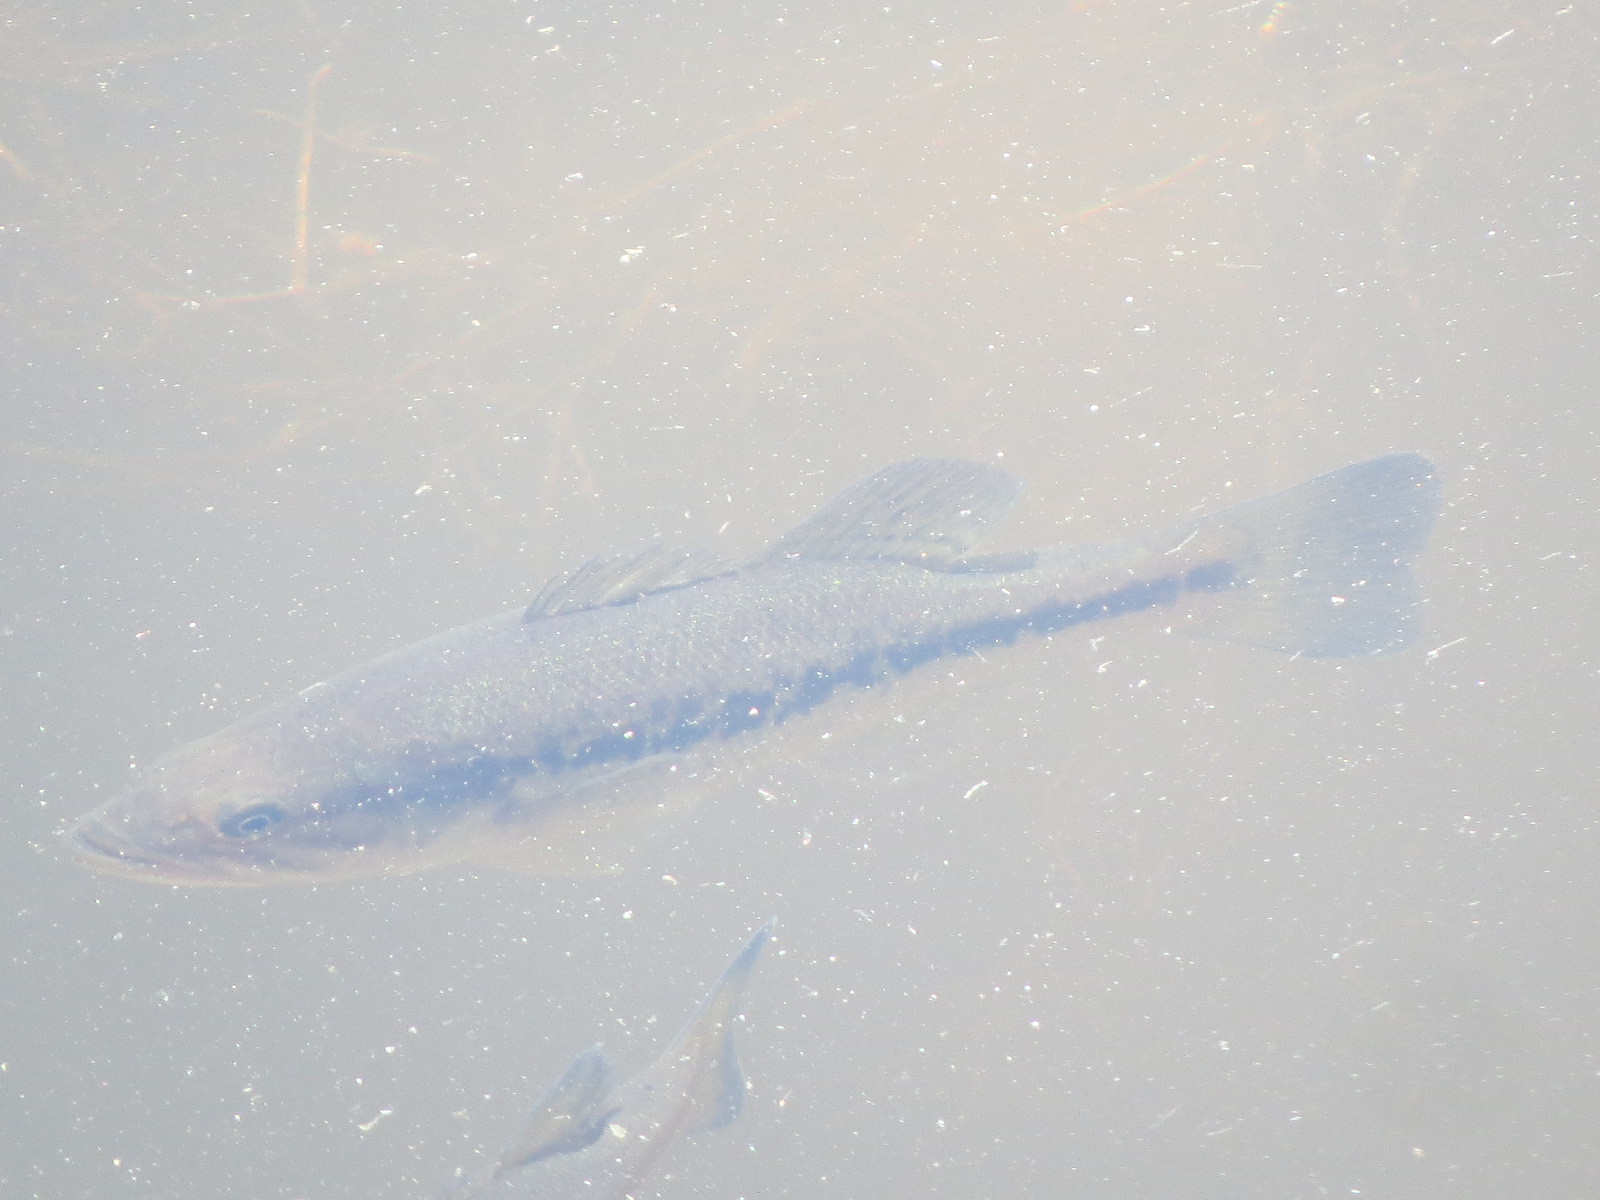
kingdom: Animalia
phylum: Chordata
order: Perciformes
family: Centrarchidae
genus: Micropterus
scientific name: Micropterus
